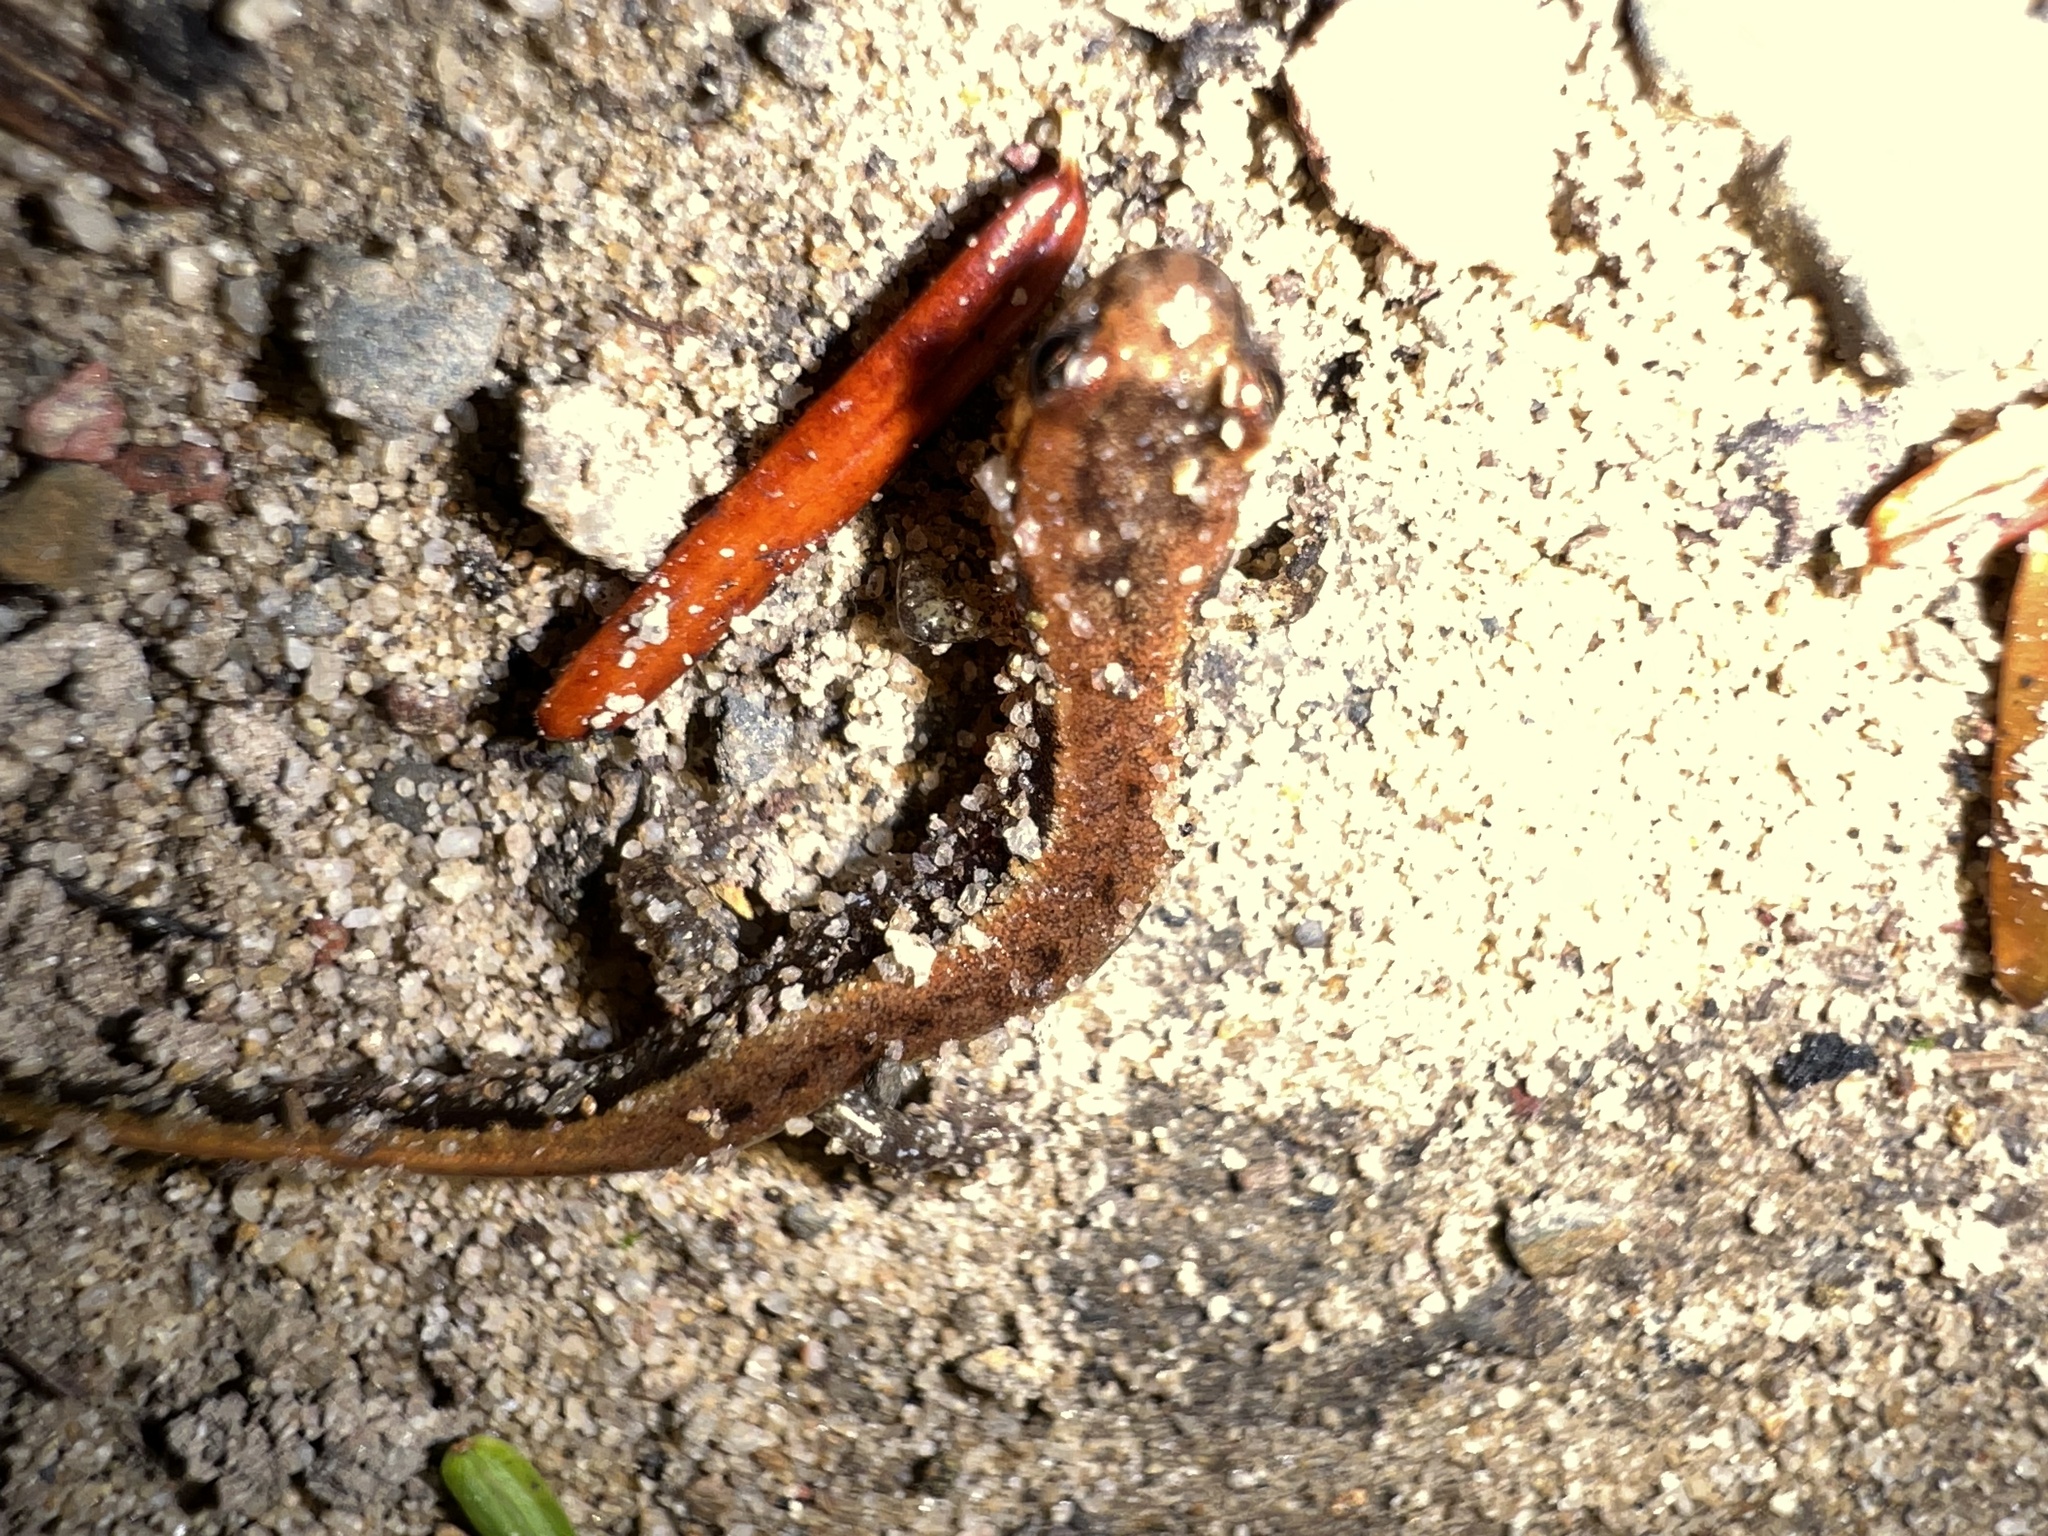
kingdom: Animalia
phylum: Chordata
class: Amphibia
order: Caudata
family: Plethodontidae
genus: Desmognathus
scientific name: Desmognathus ochrophaeus
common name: Allegheny mountain dusky salamander
